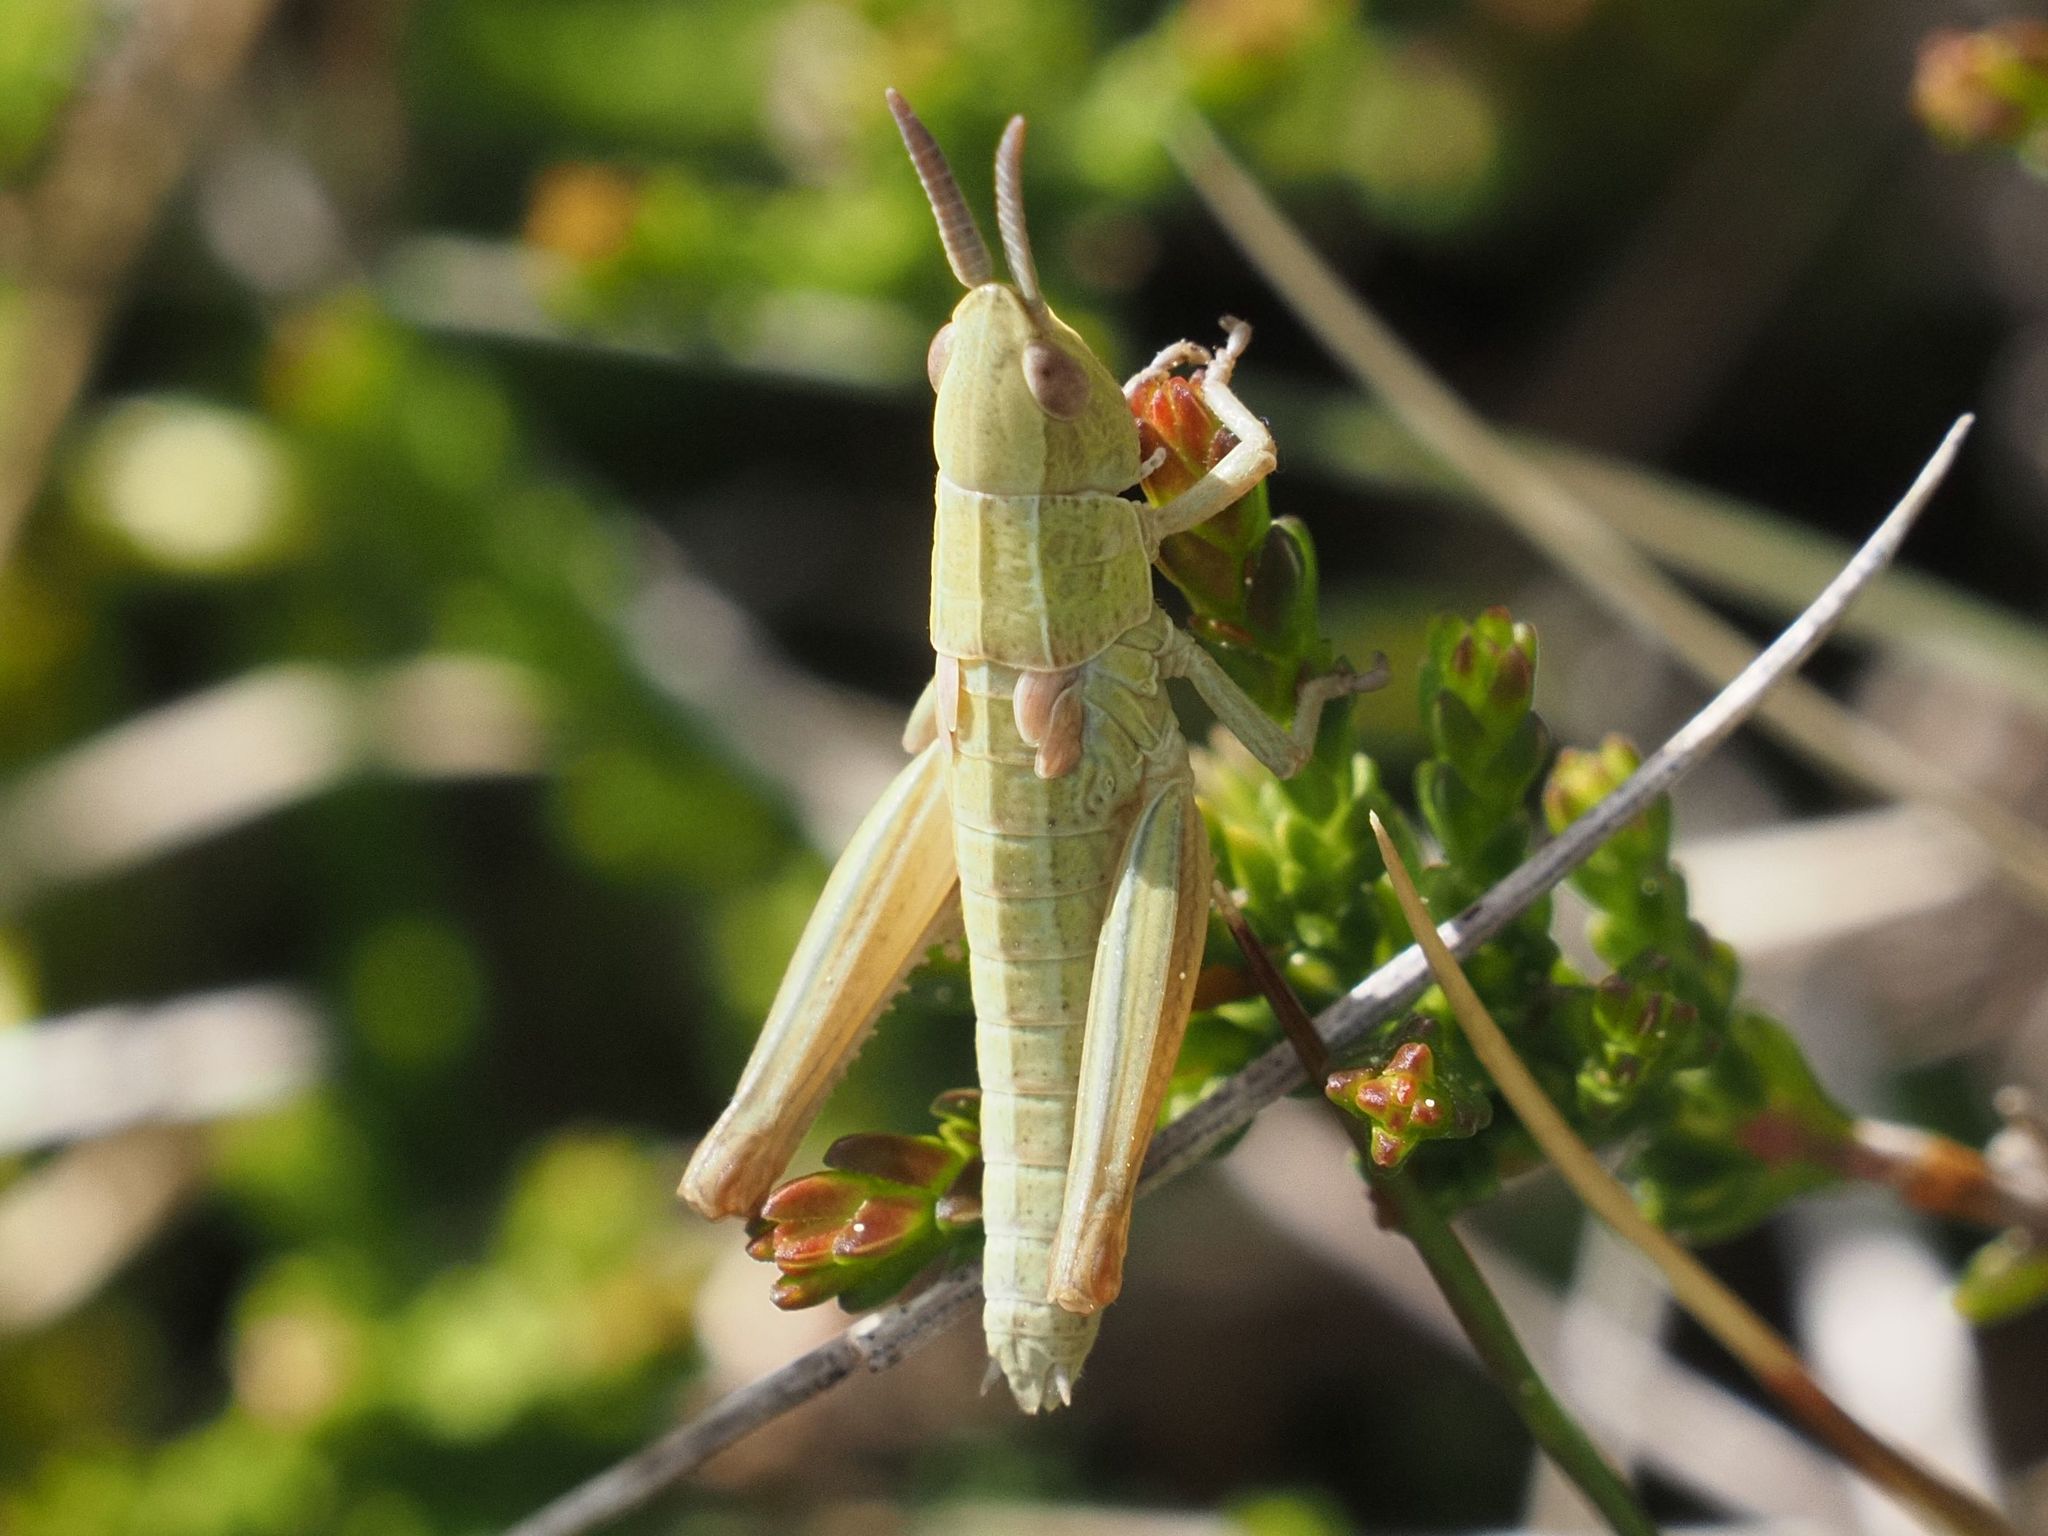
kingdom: Animalia
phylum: Arthropoda
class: Insecta
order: Orthoptera
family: Acrididae
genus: Euthystira
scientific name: Euthystira brachyptera
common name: Small gold grasshopper
